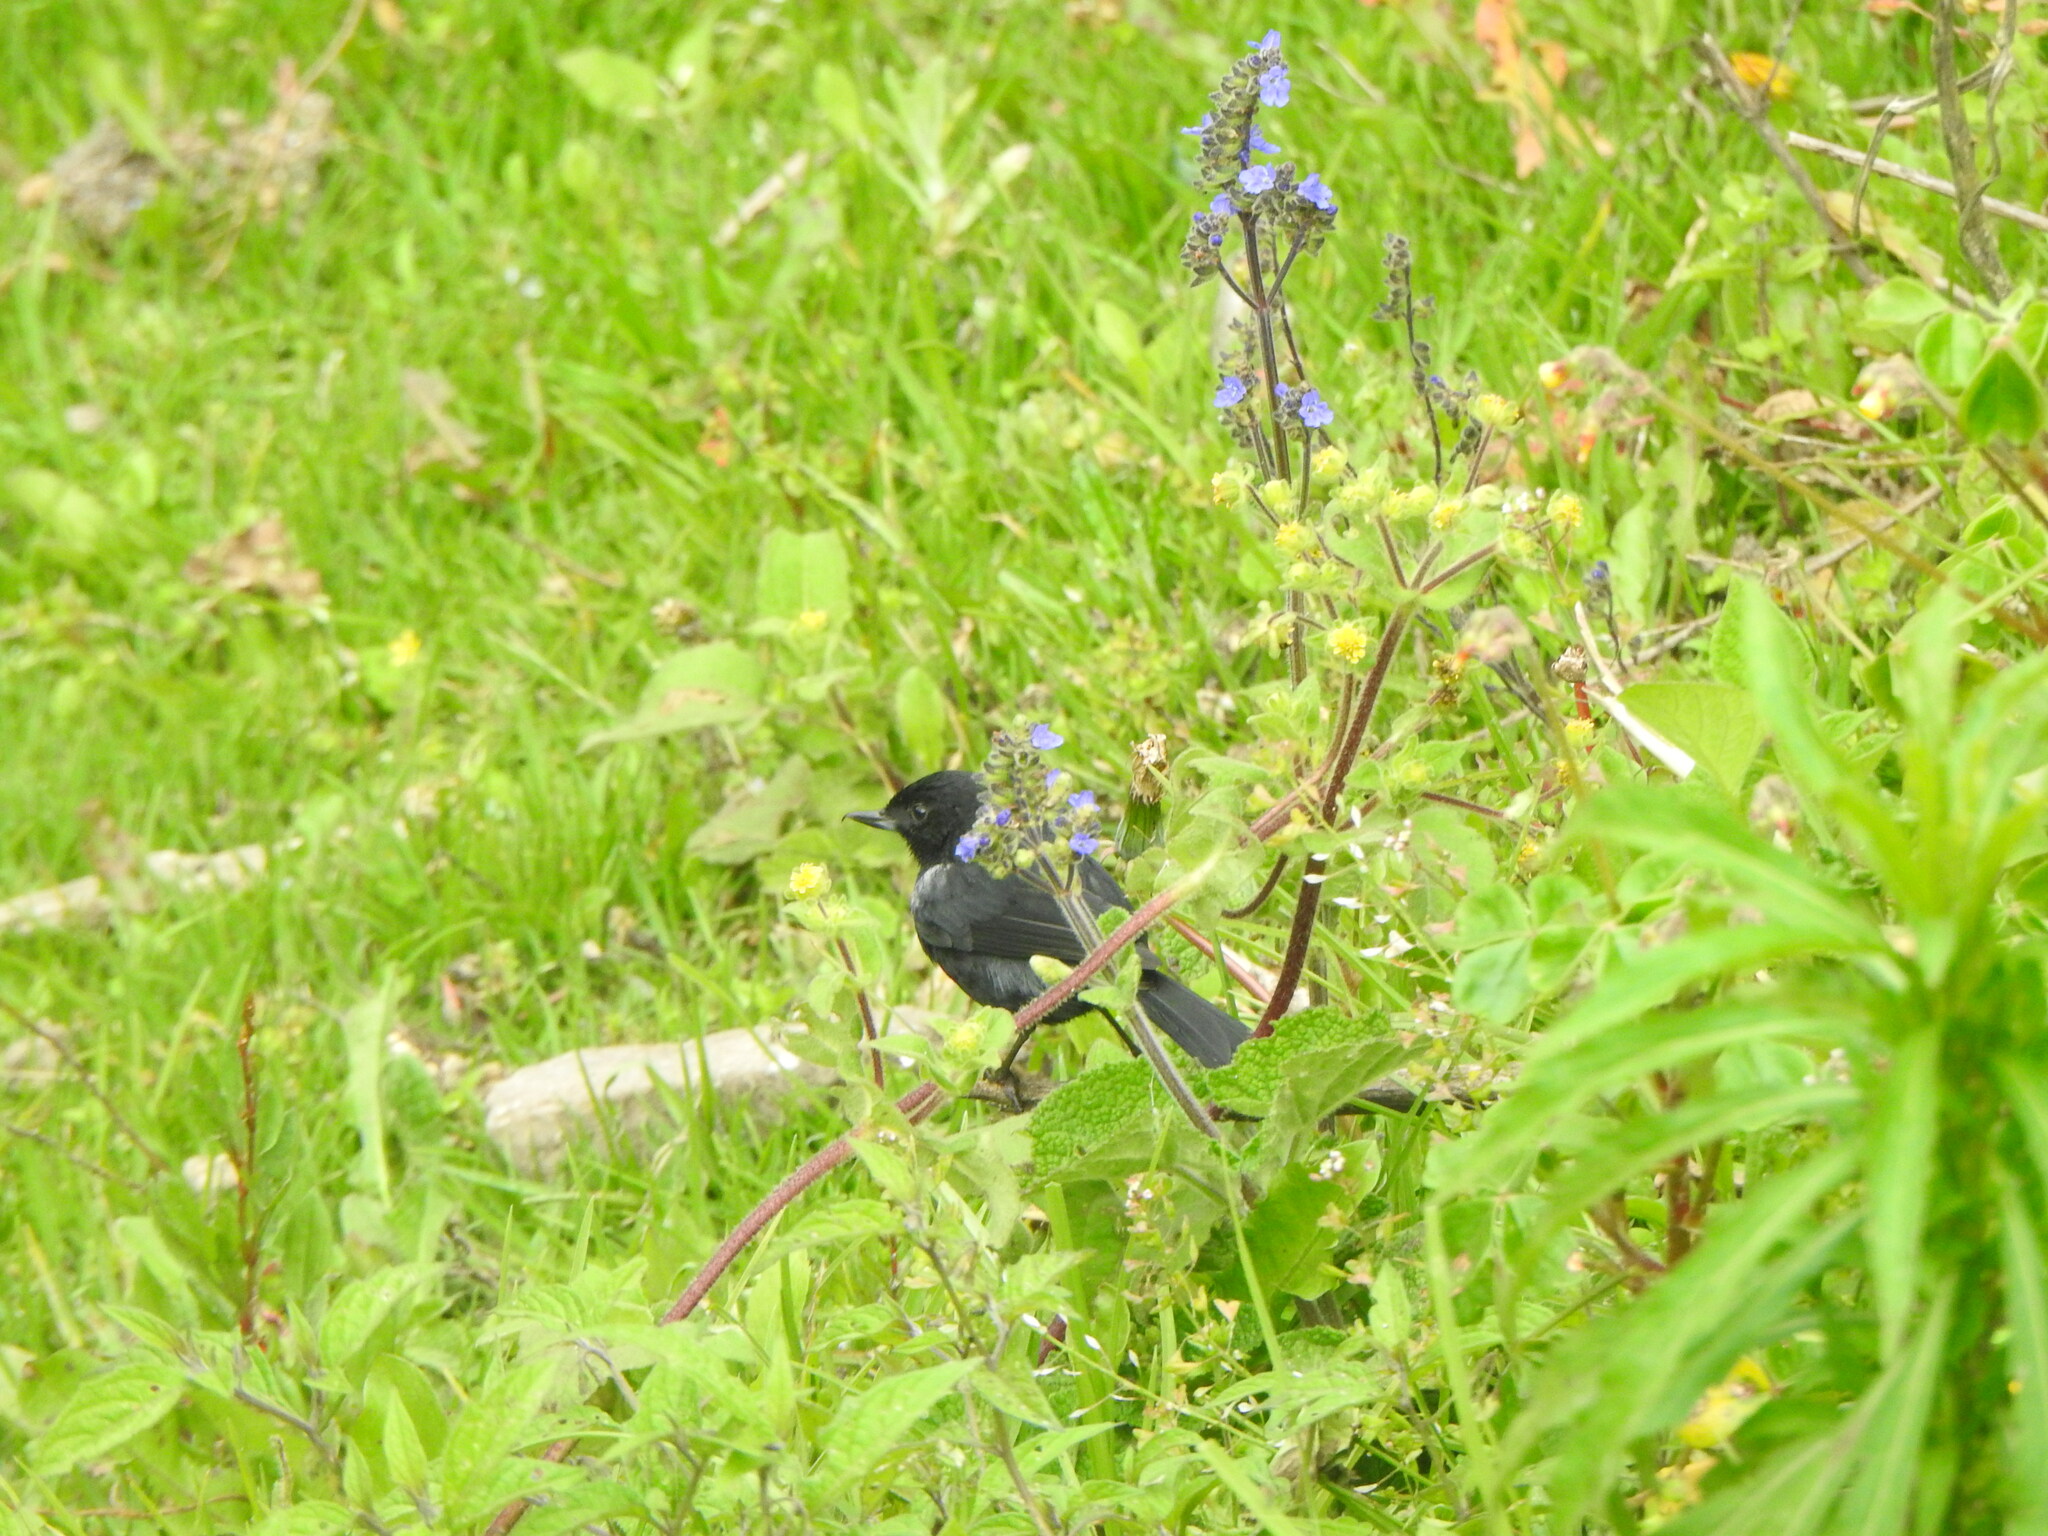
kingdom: Animalia
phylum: Chordata
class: Aves
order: Passeriformes
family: Thraupidae
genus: Diglossa
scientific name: Diglossa humeralis
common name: Black flowerpiercer
